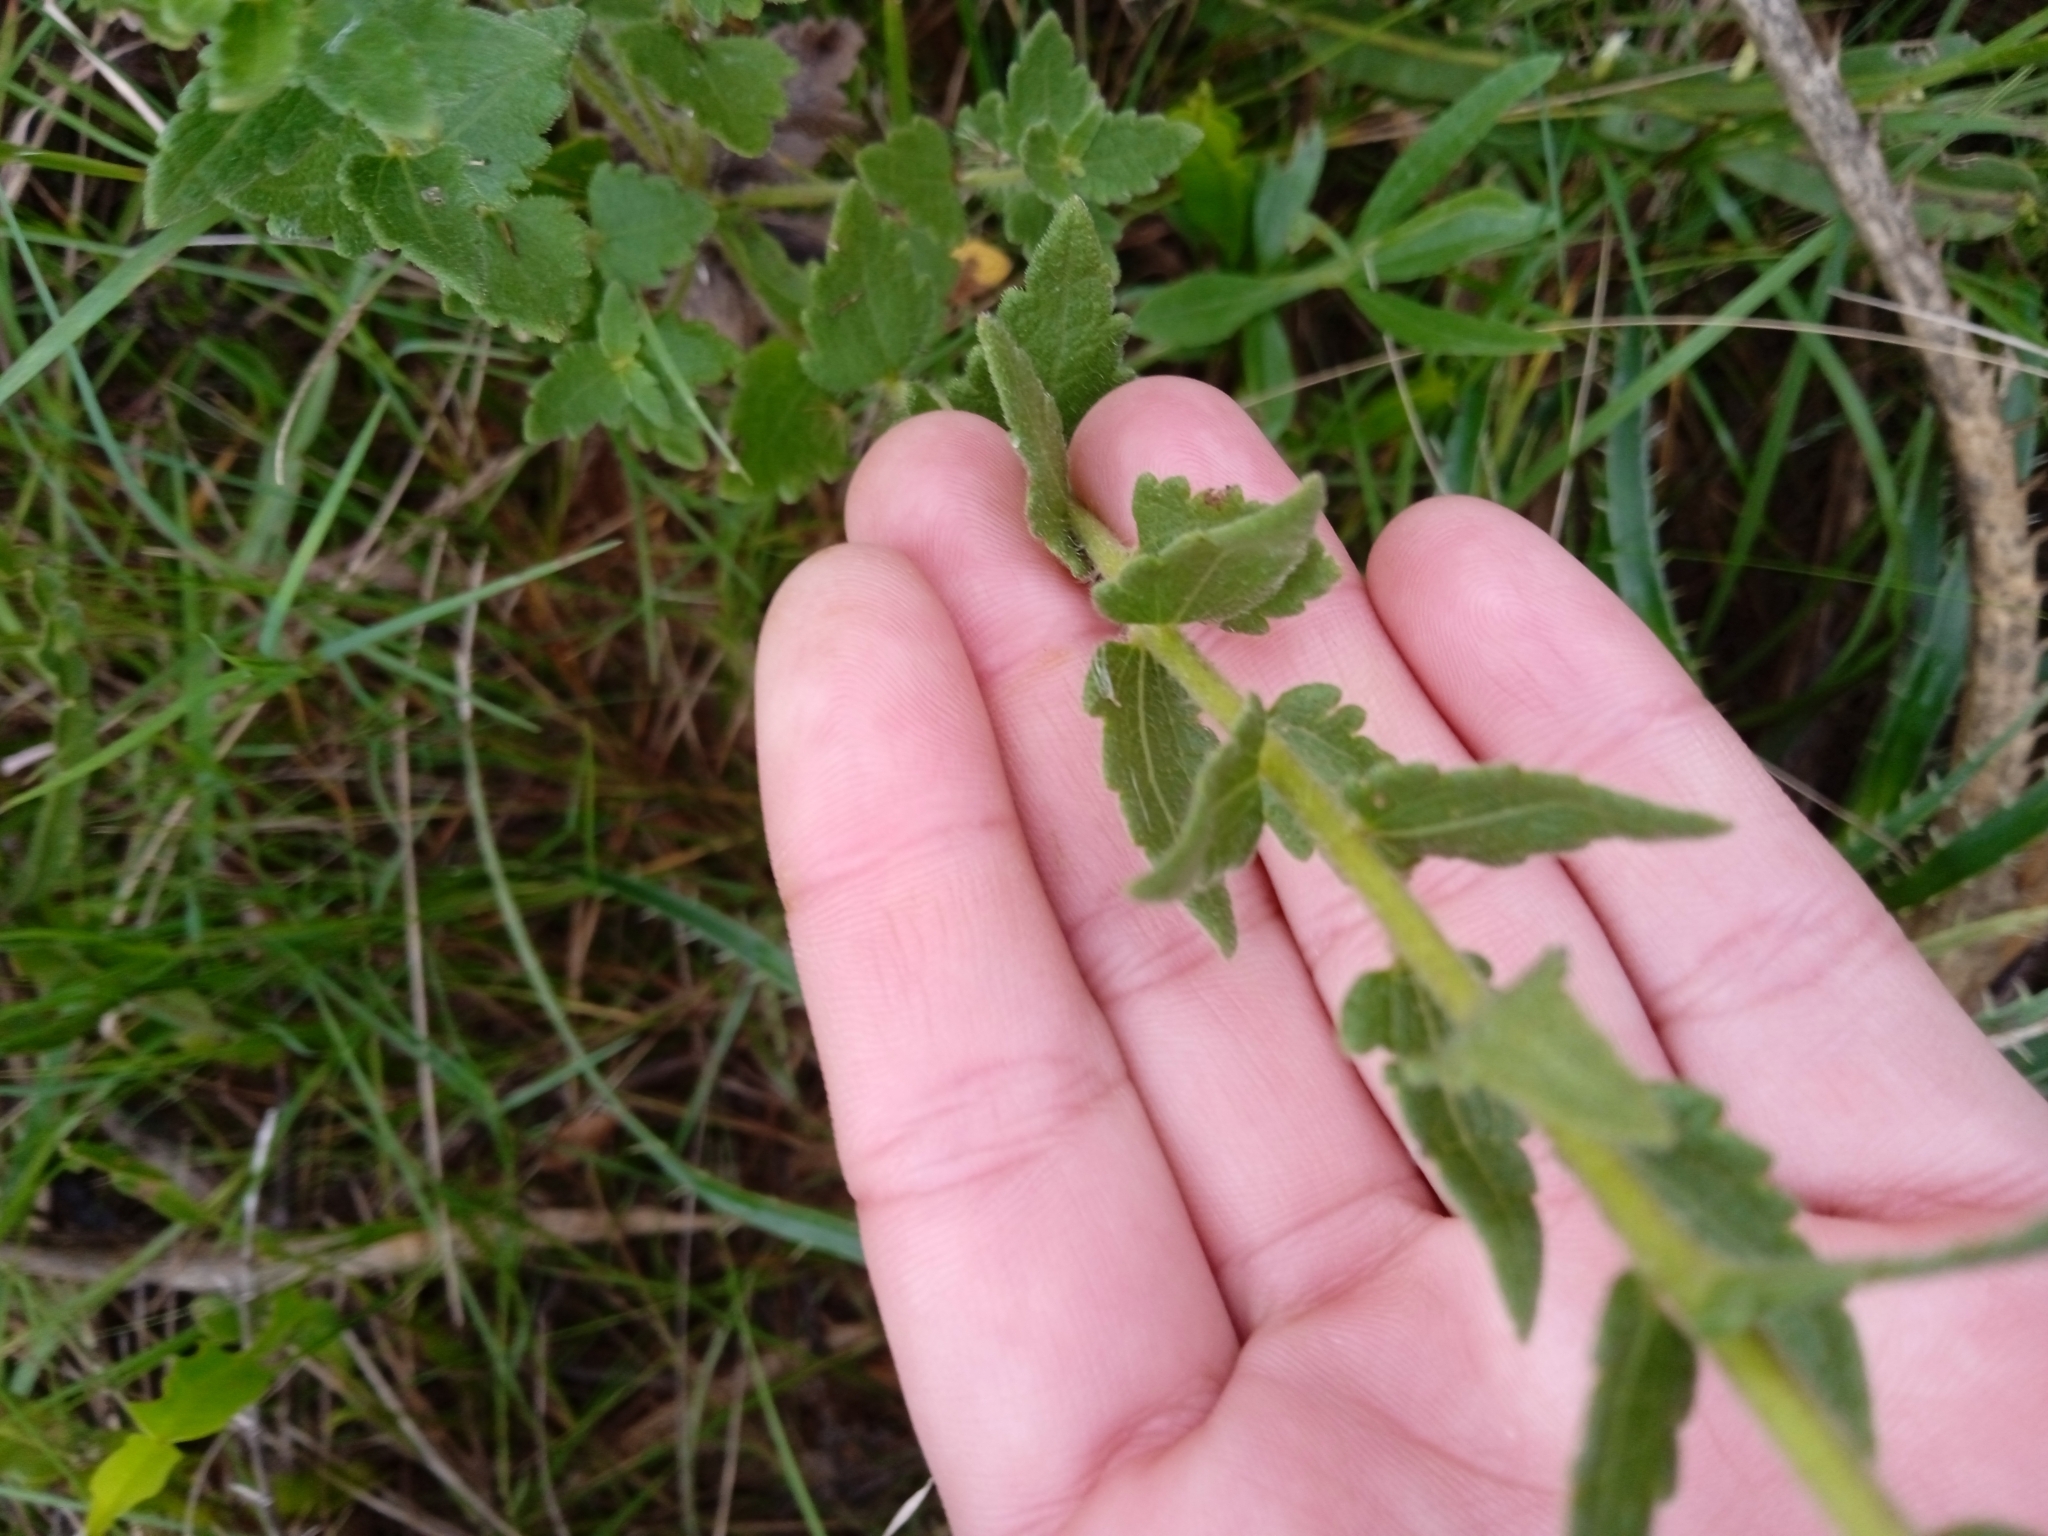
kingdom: Plantae
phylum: Tracheophyta
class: Magnoliopsida
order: Asterales
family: Asteraceae
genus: Chromolaena
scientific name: Chromolaena hirsuta
